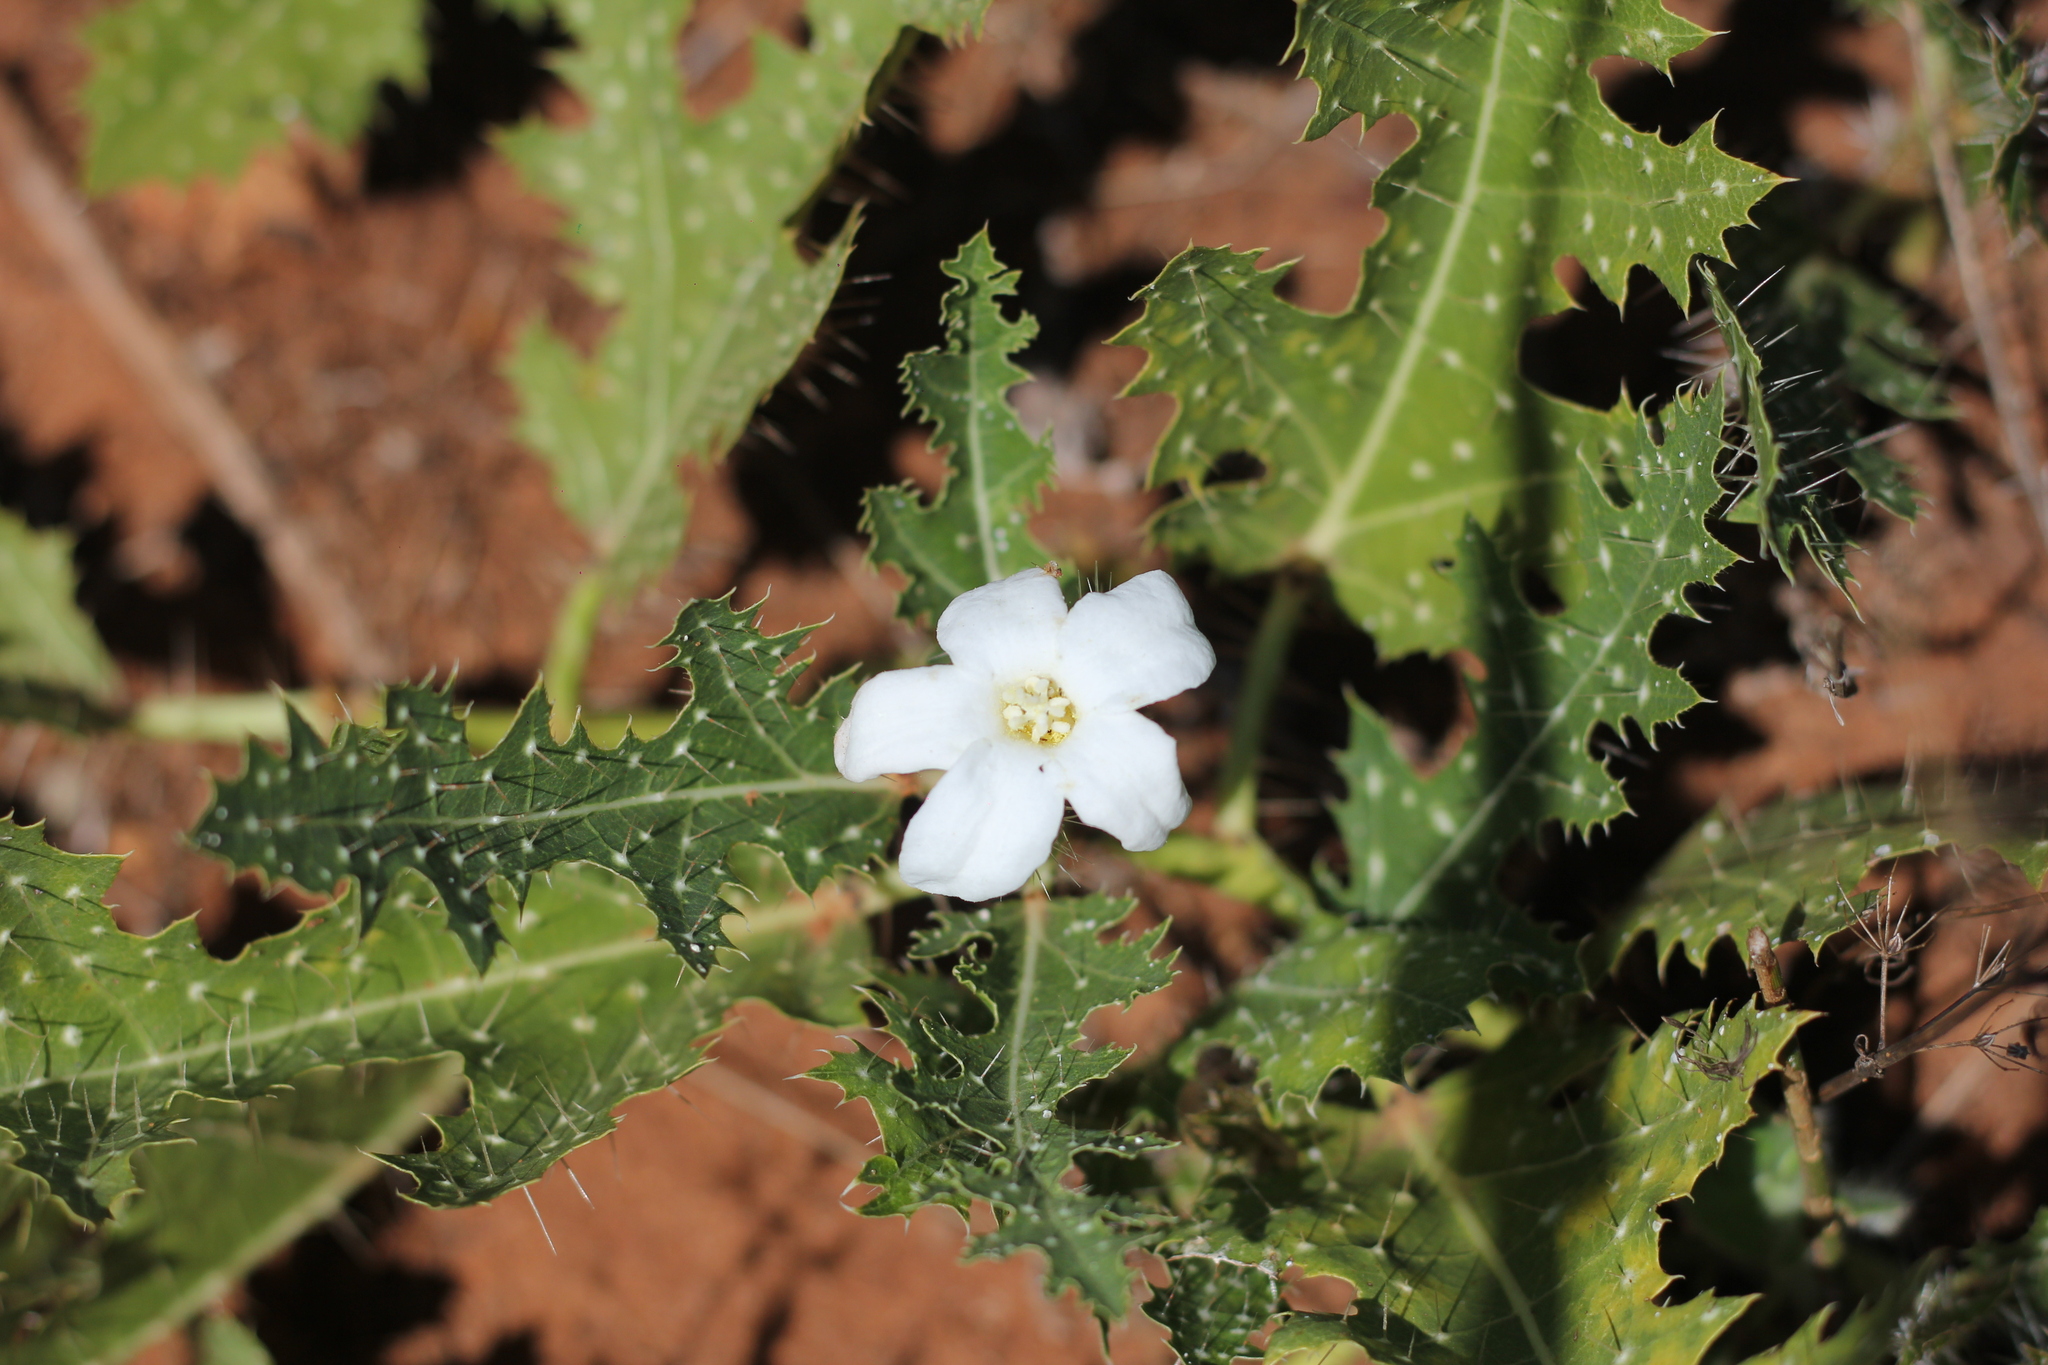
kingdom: Plantae
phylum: Tracheophyta
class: Magnoliopsida
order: Malpighiales
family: Euphorbiaceae
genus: Cnidoscolus
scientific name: Cnidoscolus loasoides
